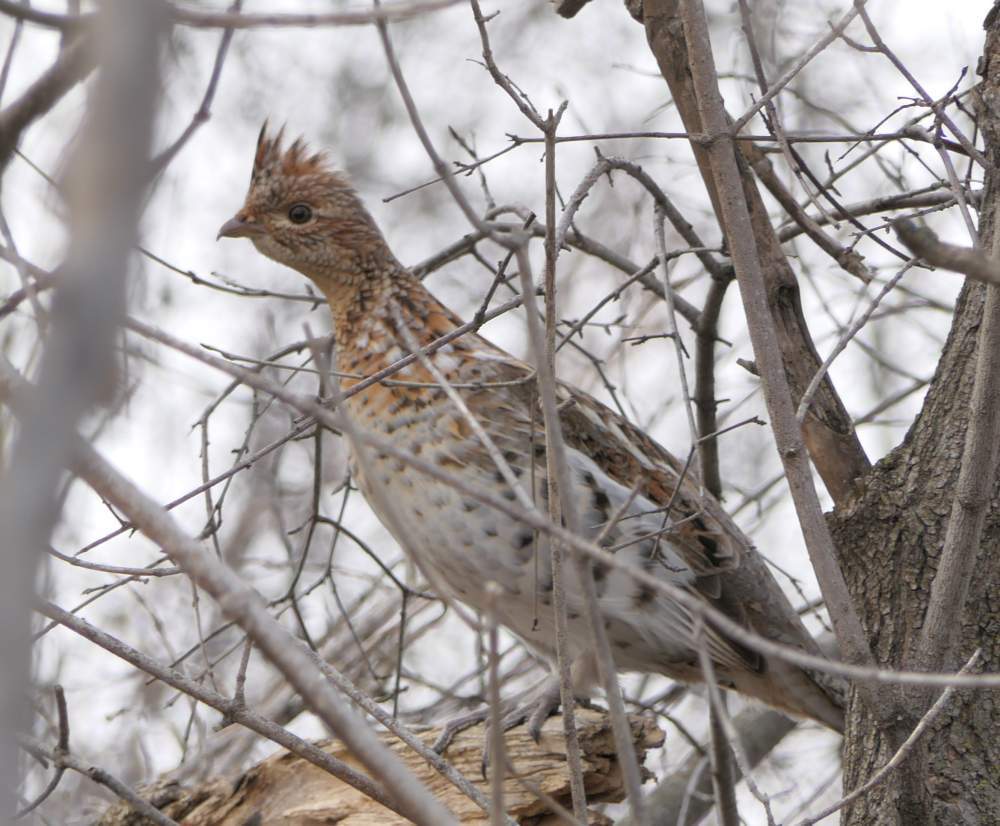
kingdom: Animalia
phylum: Chordata
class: Aves
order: Galliformes
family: Phasianidae
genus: Bonasa
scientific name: Bonasa umbellus
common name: Ruffed grouse
